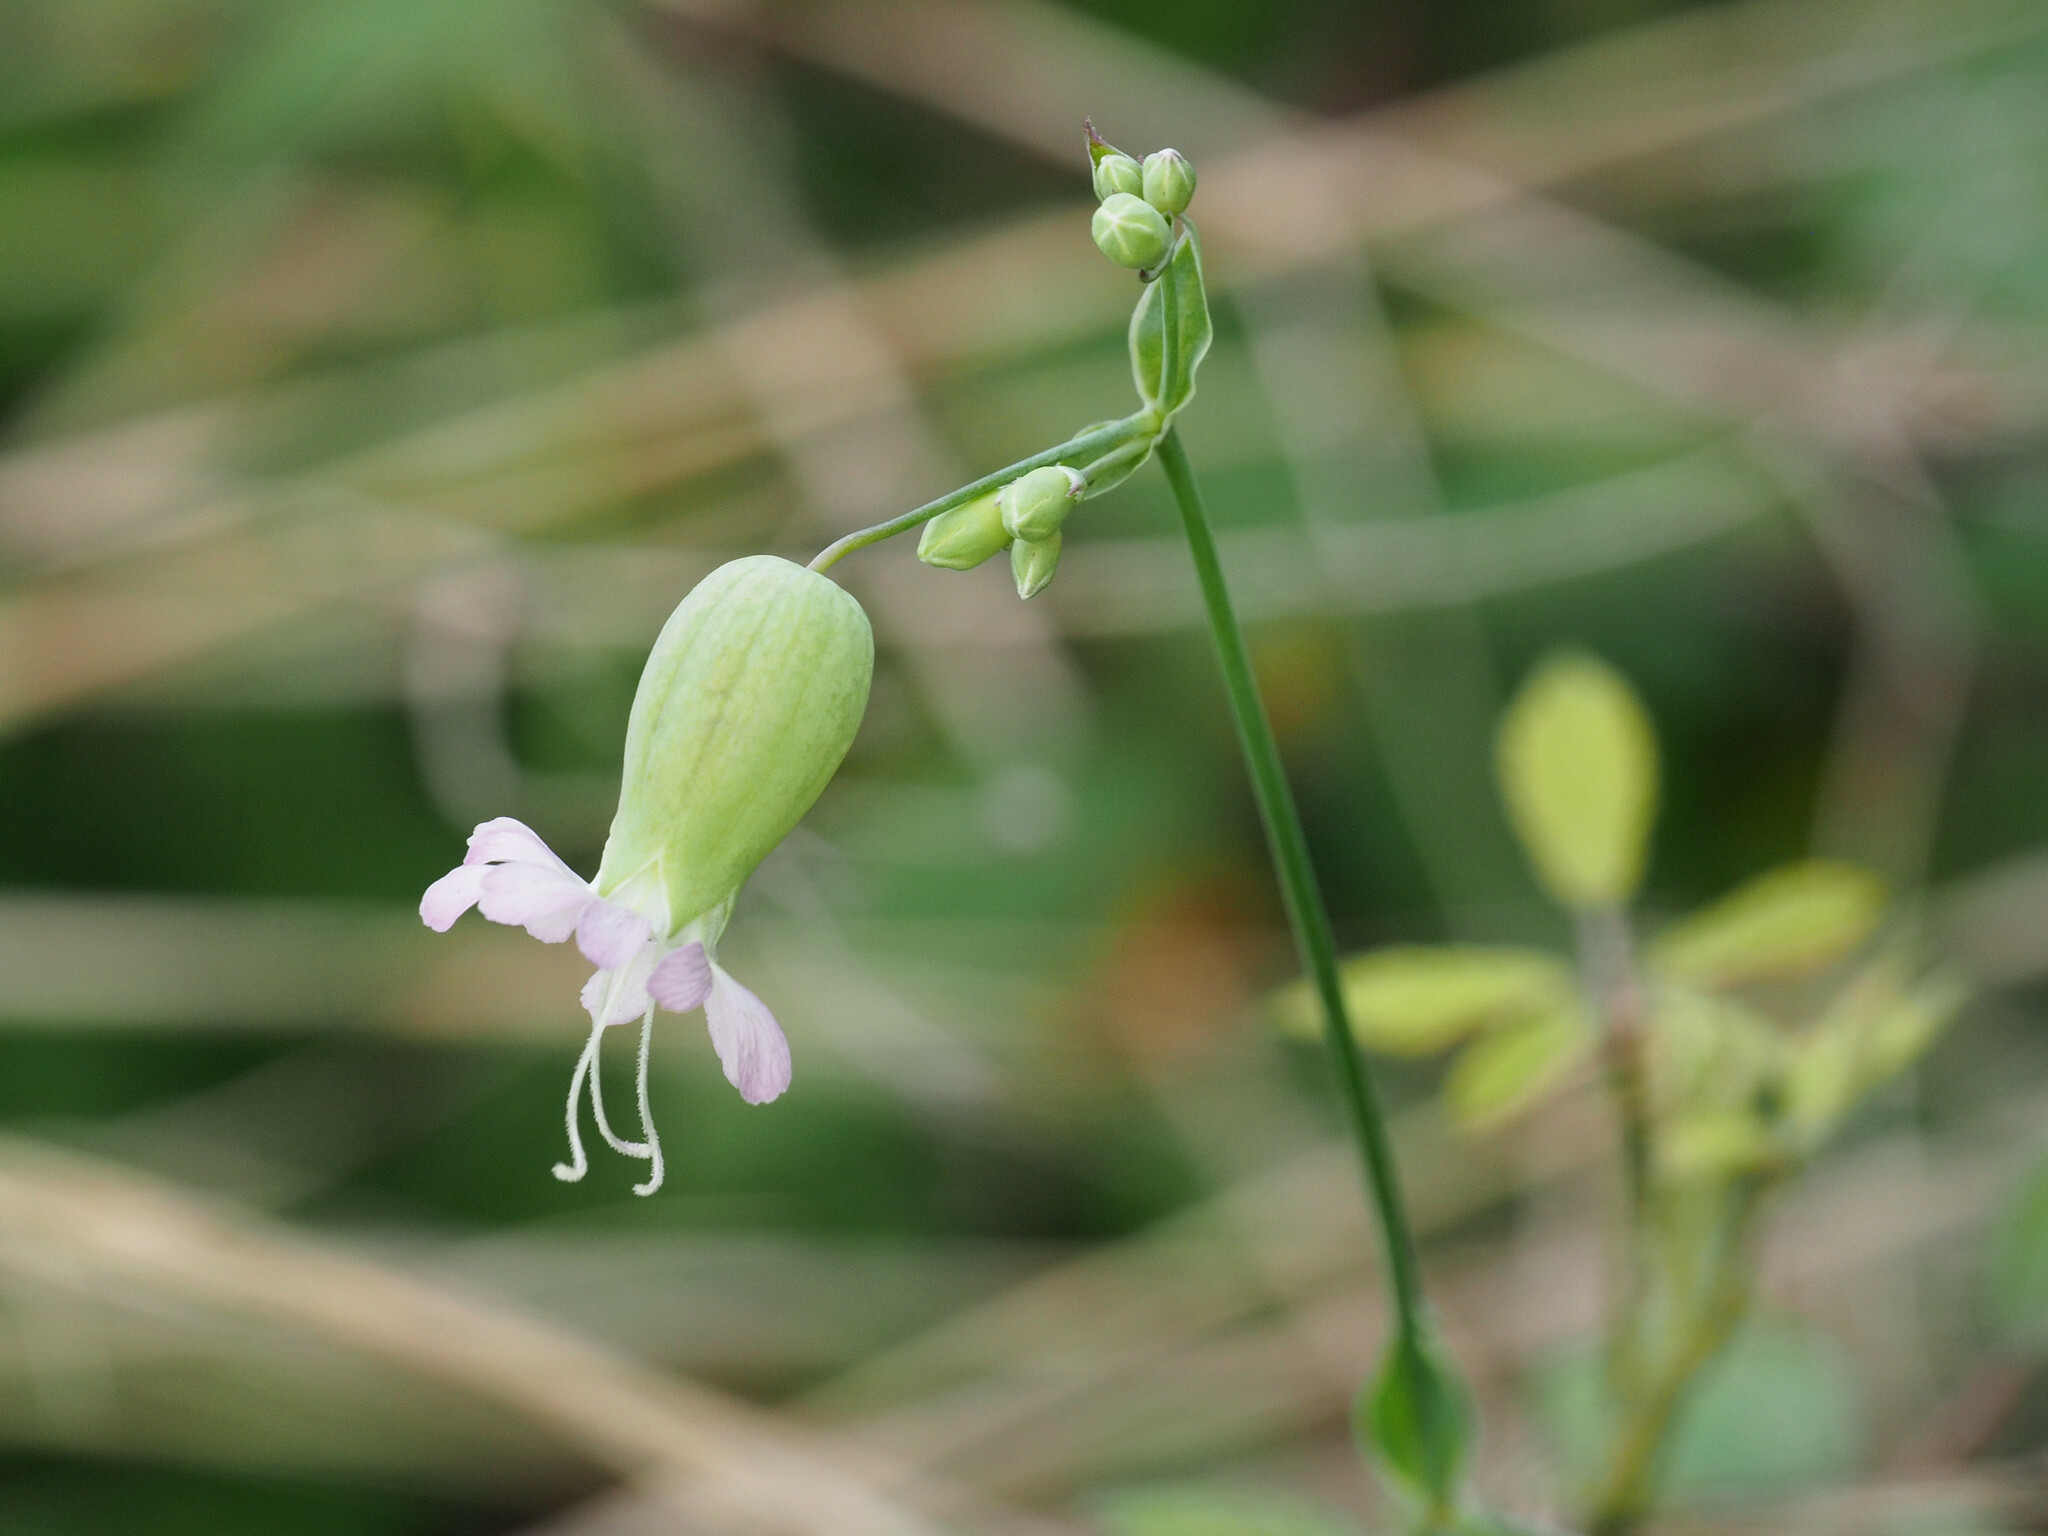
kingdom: Plantae
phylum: Tracheophyta
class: Magnoliopsida
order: Caryophyllales
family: Caryophyllaceae
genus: Silene
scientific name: Silene vulgaris
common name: Bladder campion
